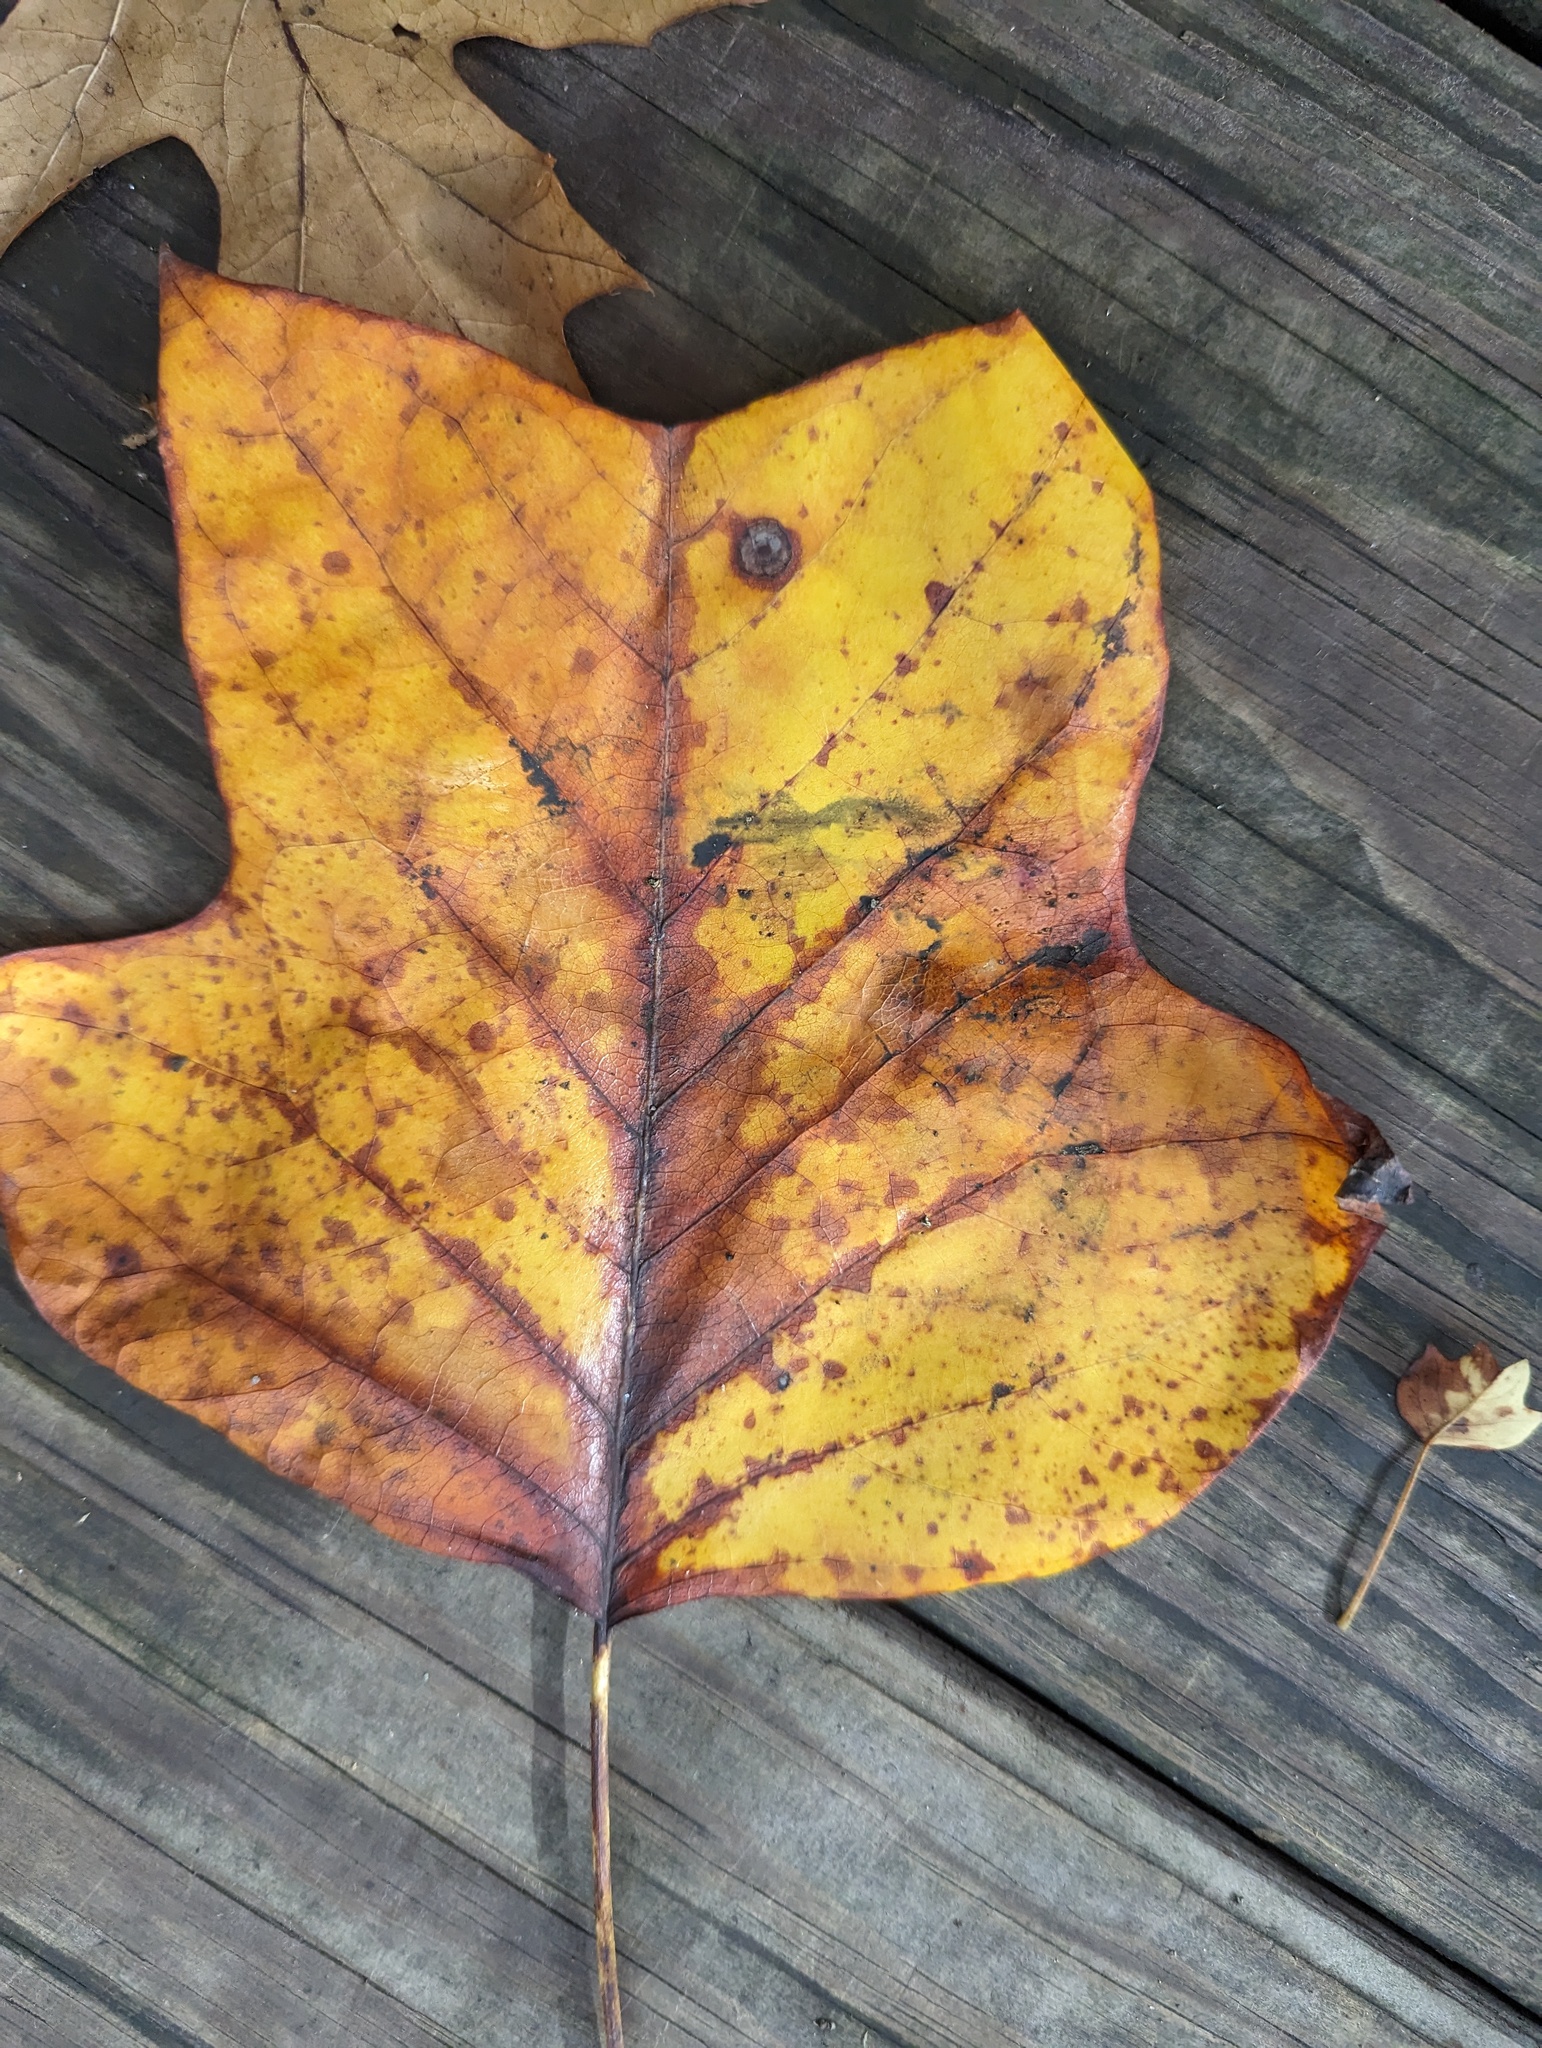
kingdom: Plantae
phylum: Tracheophyta
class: Magnoliopsida
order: Magnoliales
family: Magnoliaceae
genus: Liriodendron
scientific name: Liriodendron tulipifera
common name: Tulip tree
